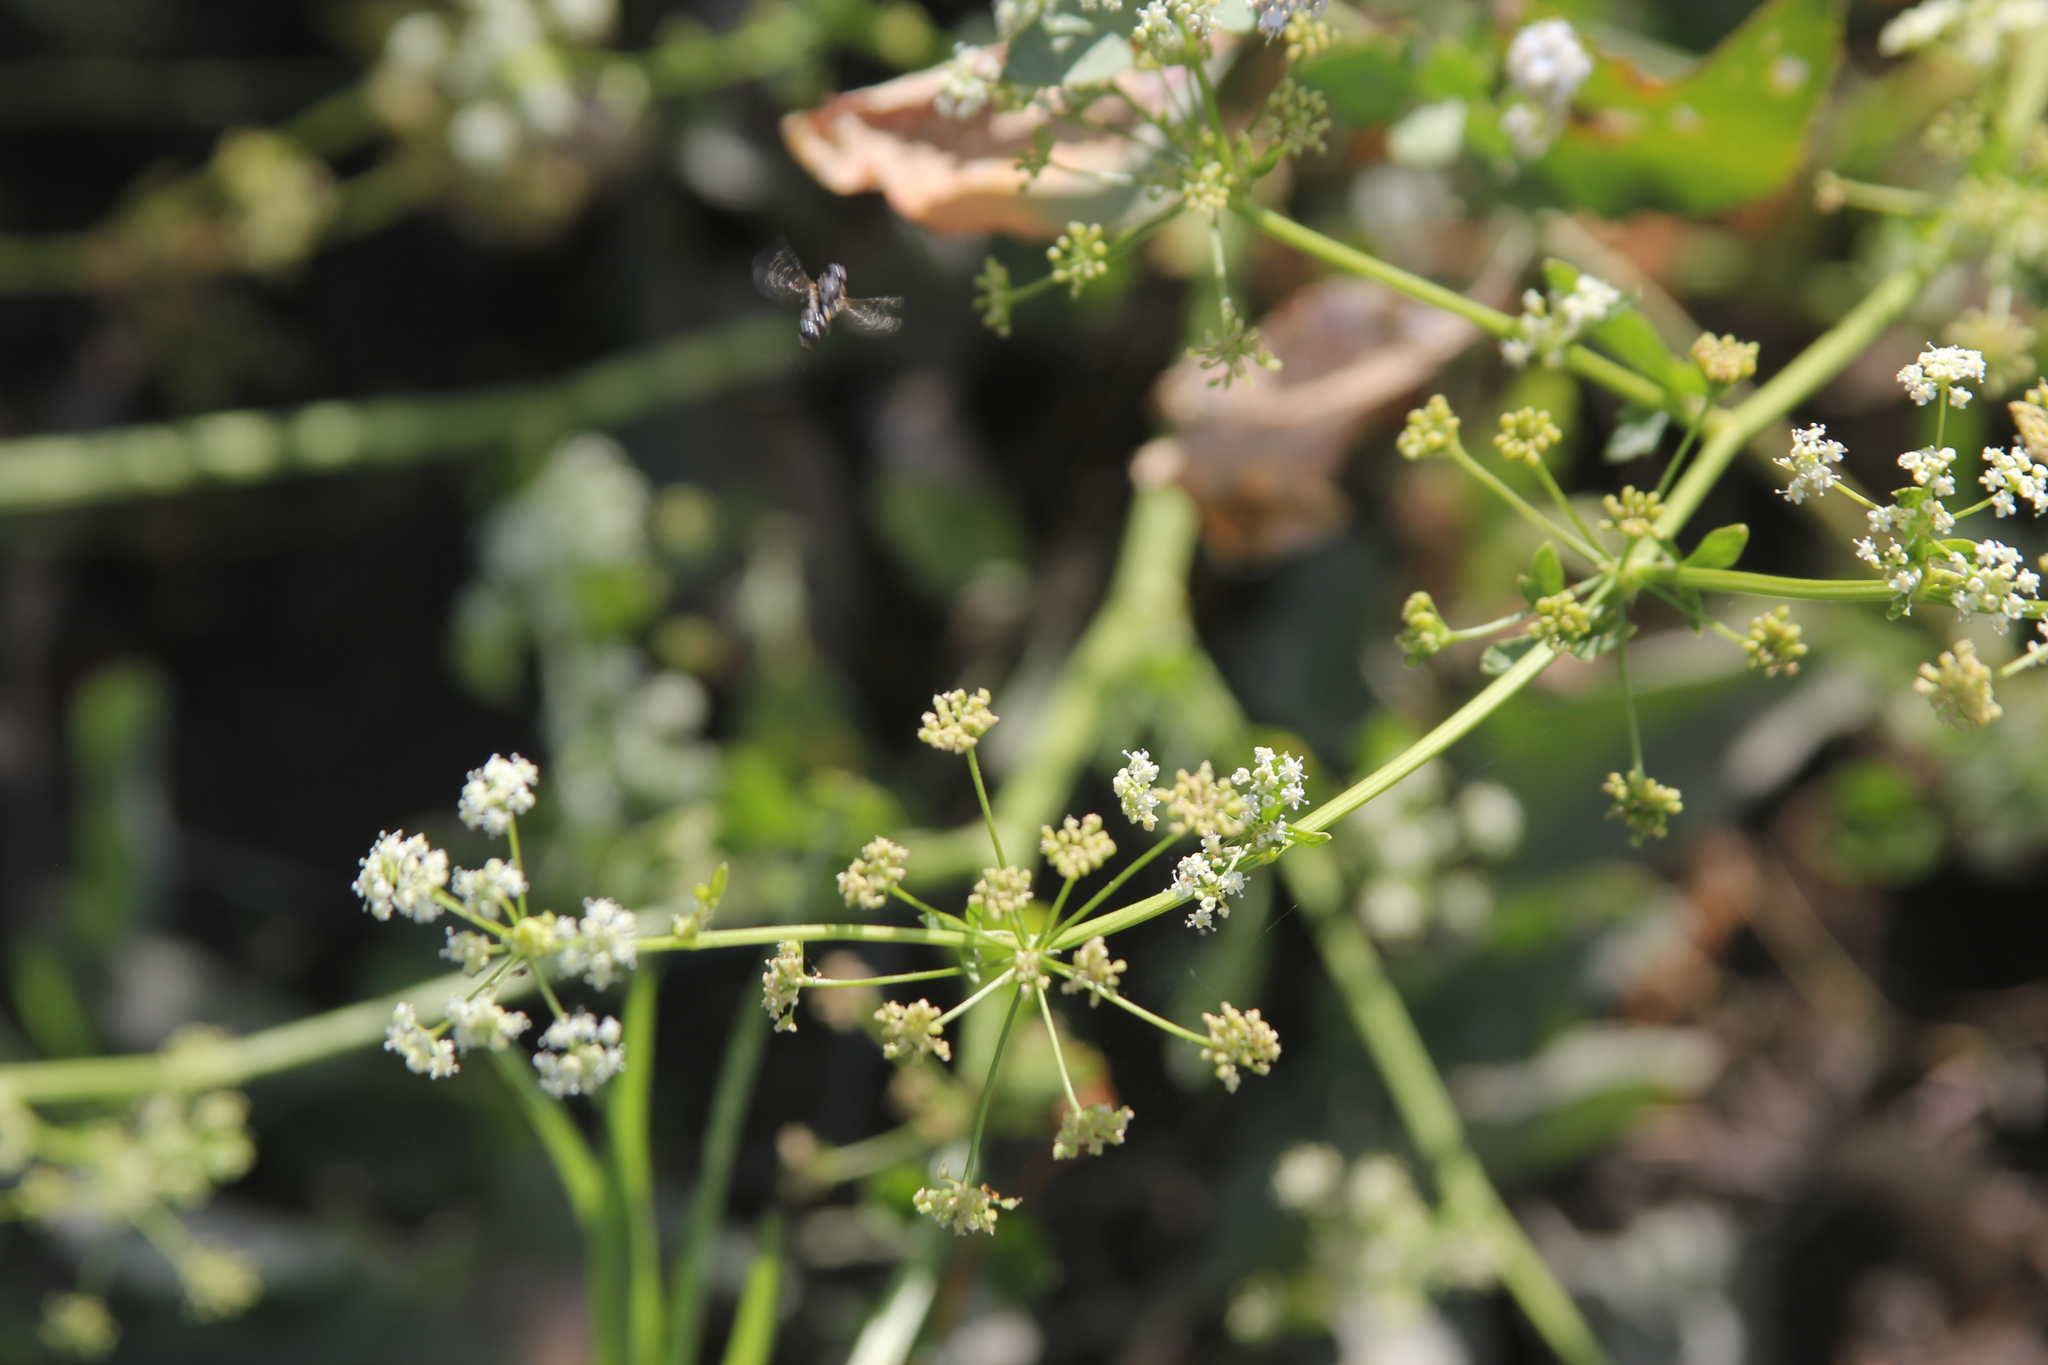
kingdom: Plantae
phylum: Tracheophyta
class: Magnoliopsida
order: Apiales
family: Apiaceae
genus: Apium
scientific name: Apium graveolens
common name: Wild celery
